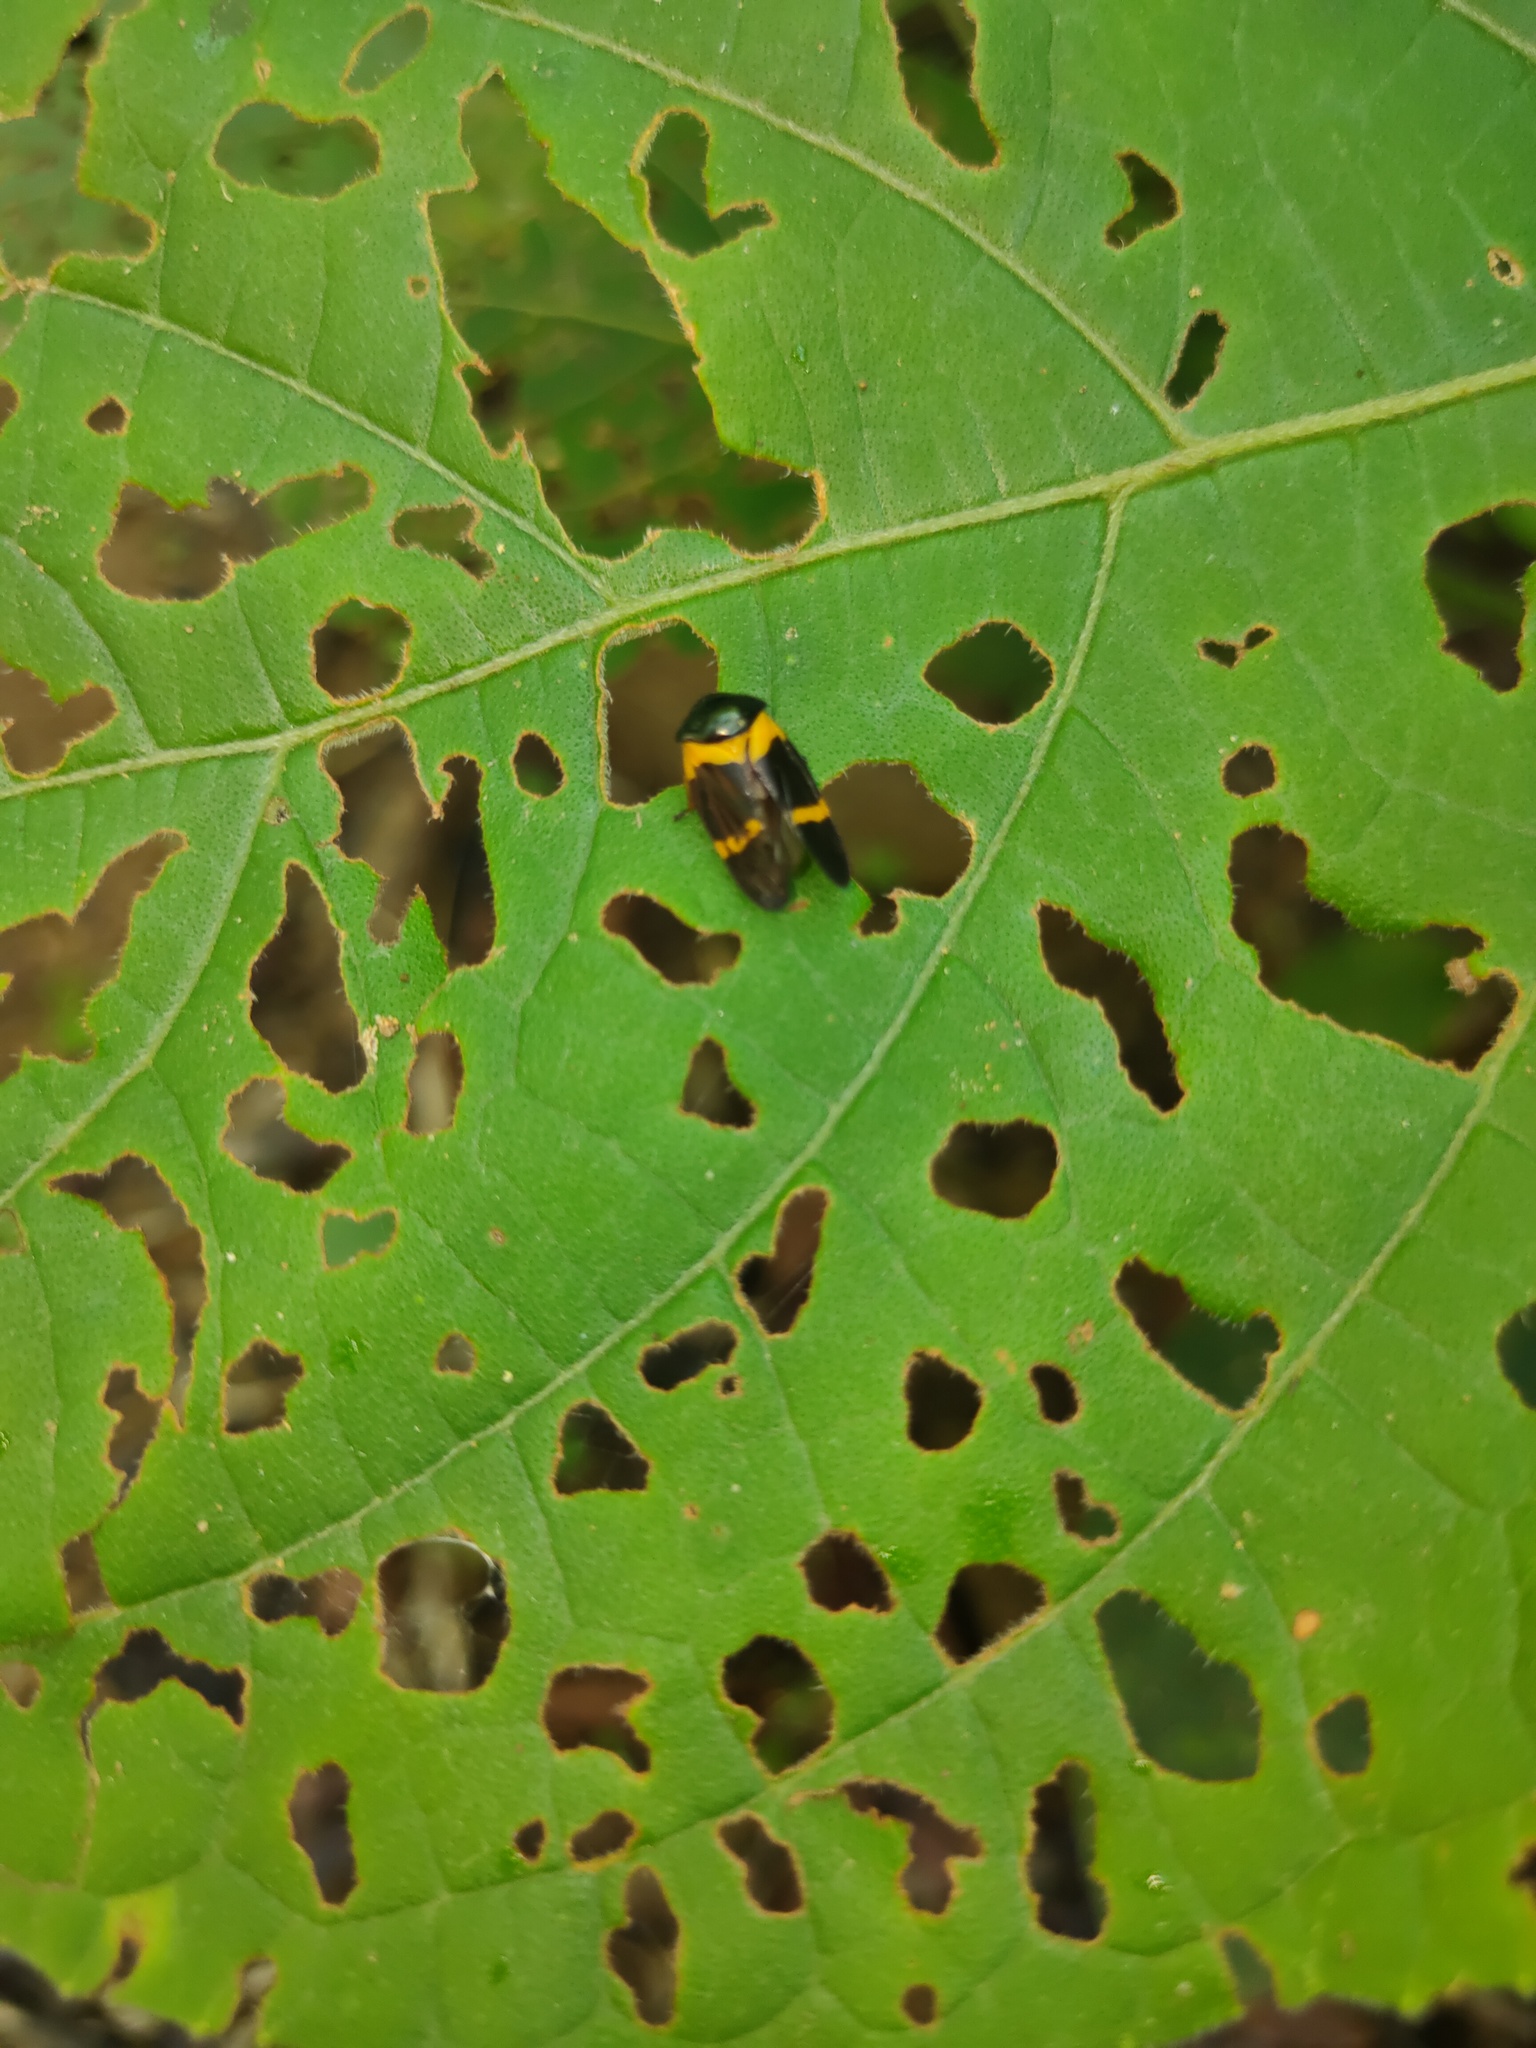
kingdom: Animalia
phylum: Arthropoda
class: Insecta
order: Hemiptera
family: Cercopidae
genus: Cosmoscarta
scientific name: Cosmoscarta egeria
